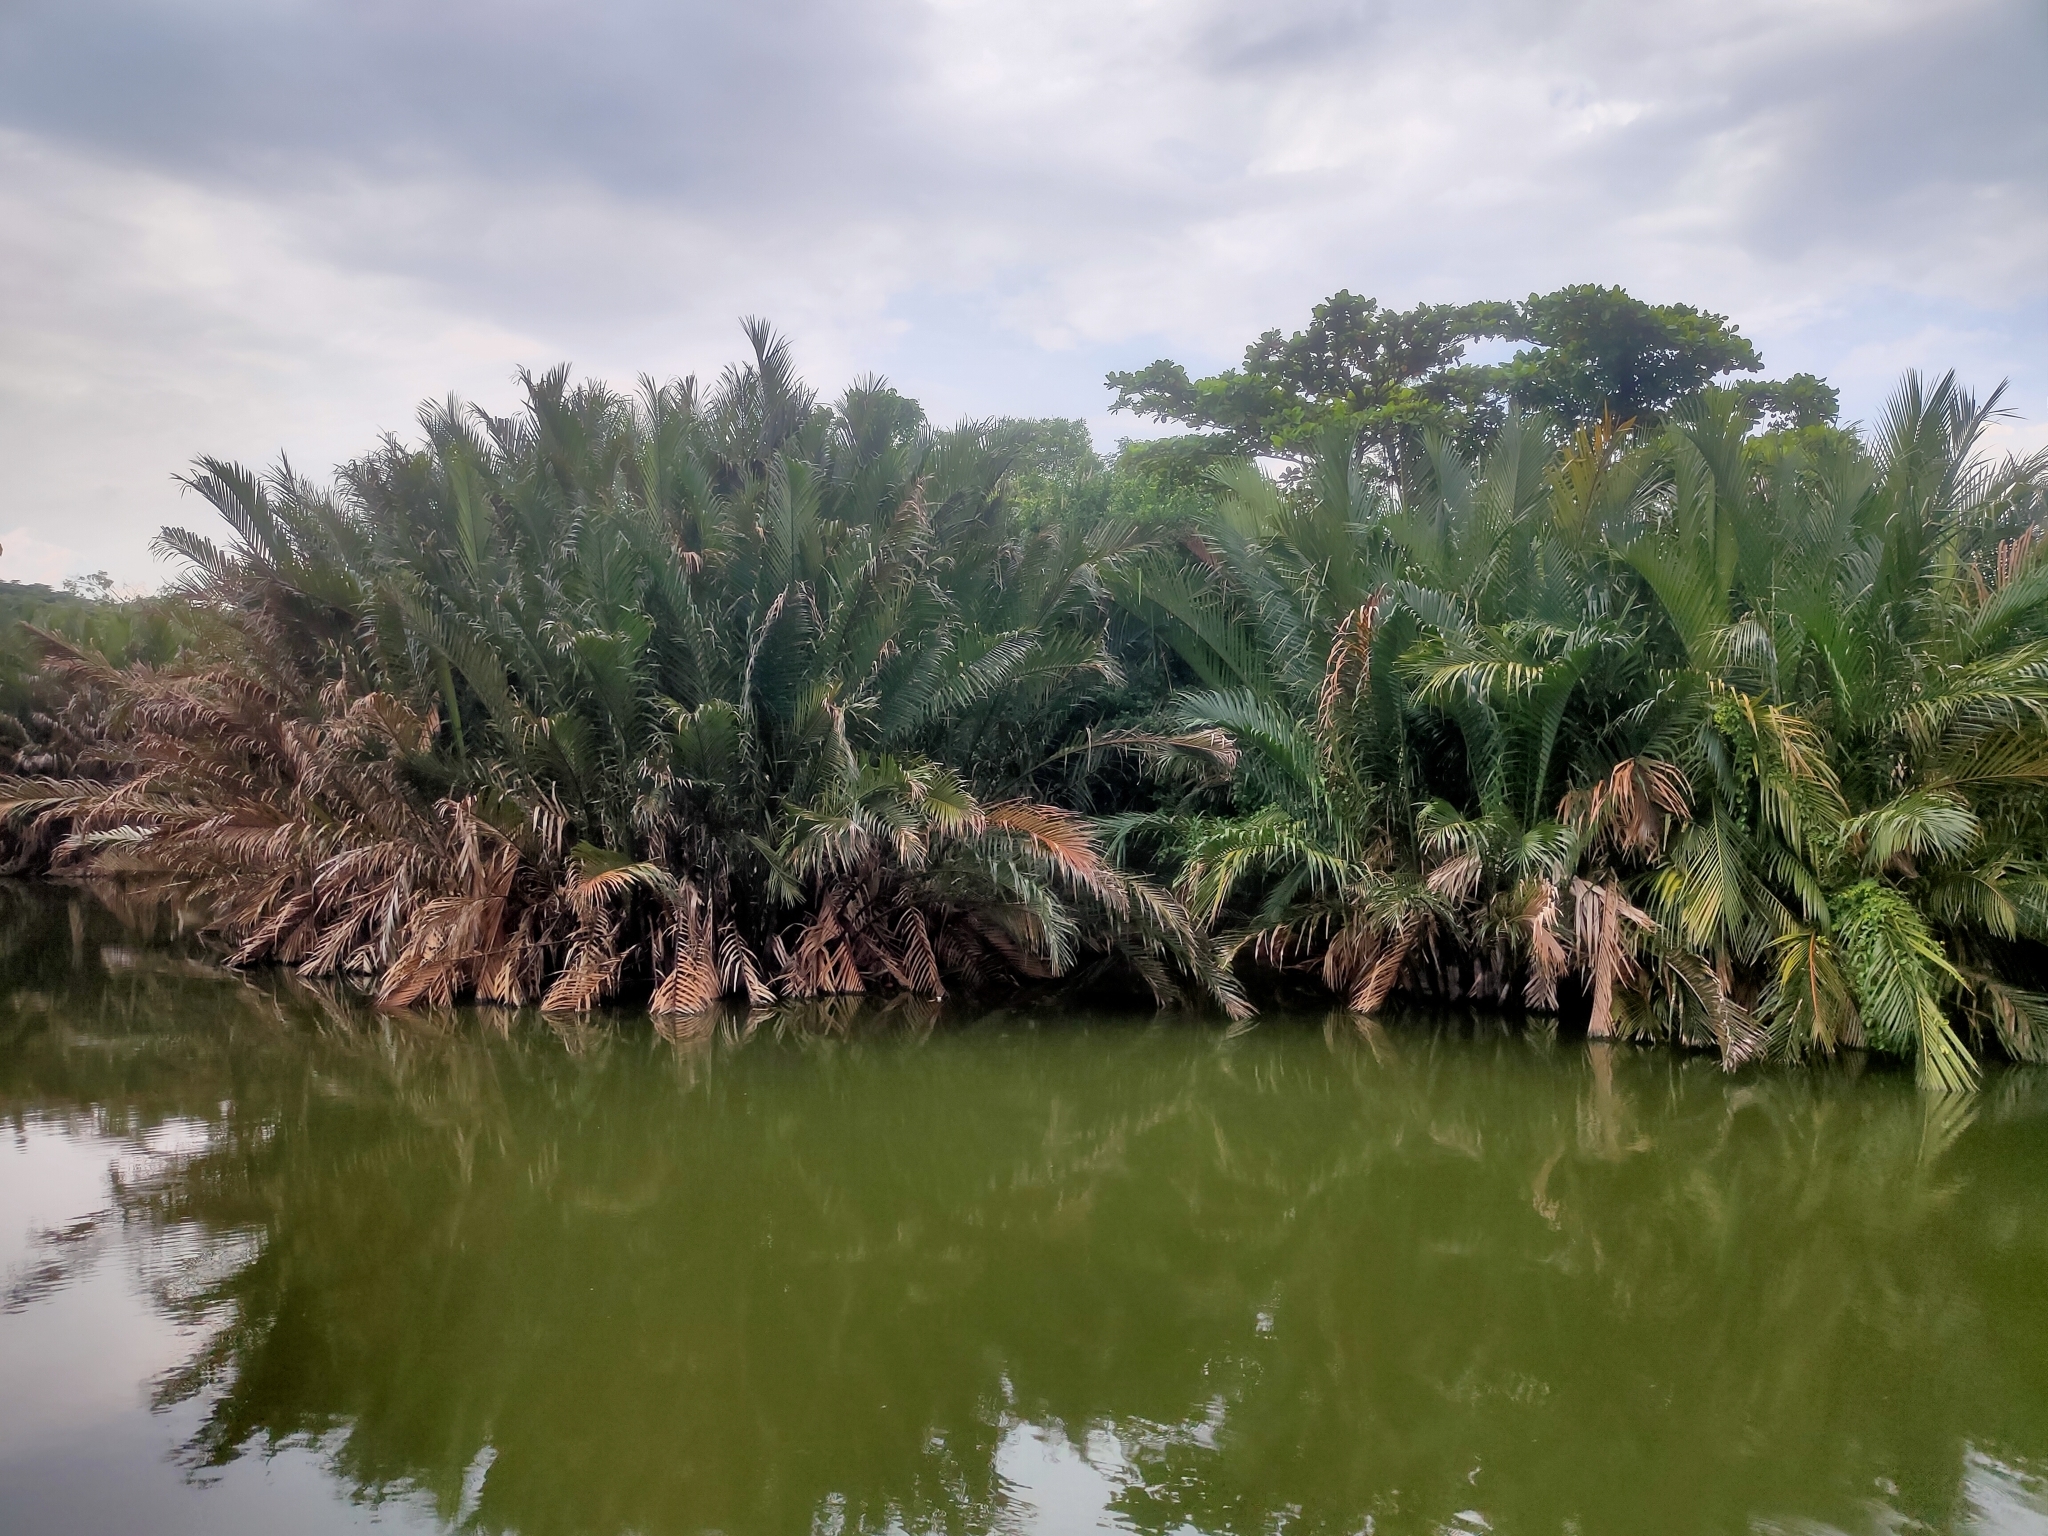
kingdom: Plantae
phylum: Tracheophyta
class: Liliopsida
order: Arecales
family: Arecaceae
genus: Nypa
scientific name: Nypa fruticans
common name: Mangrove palm
